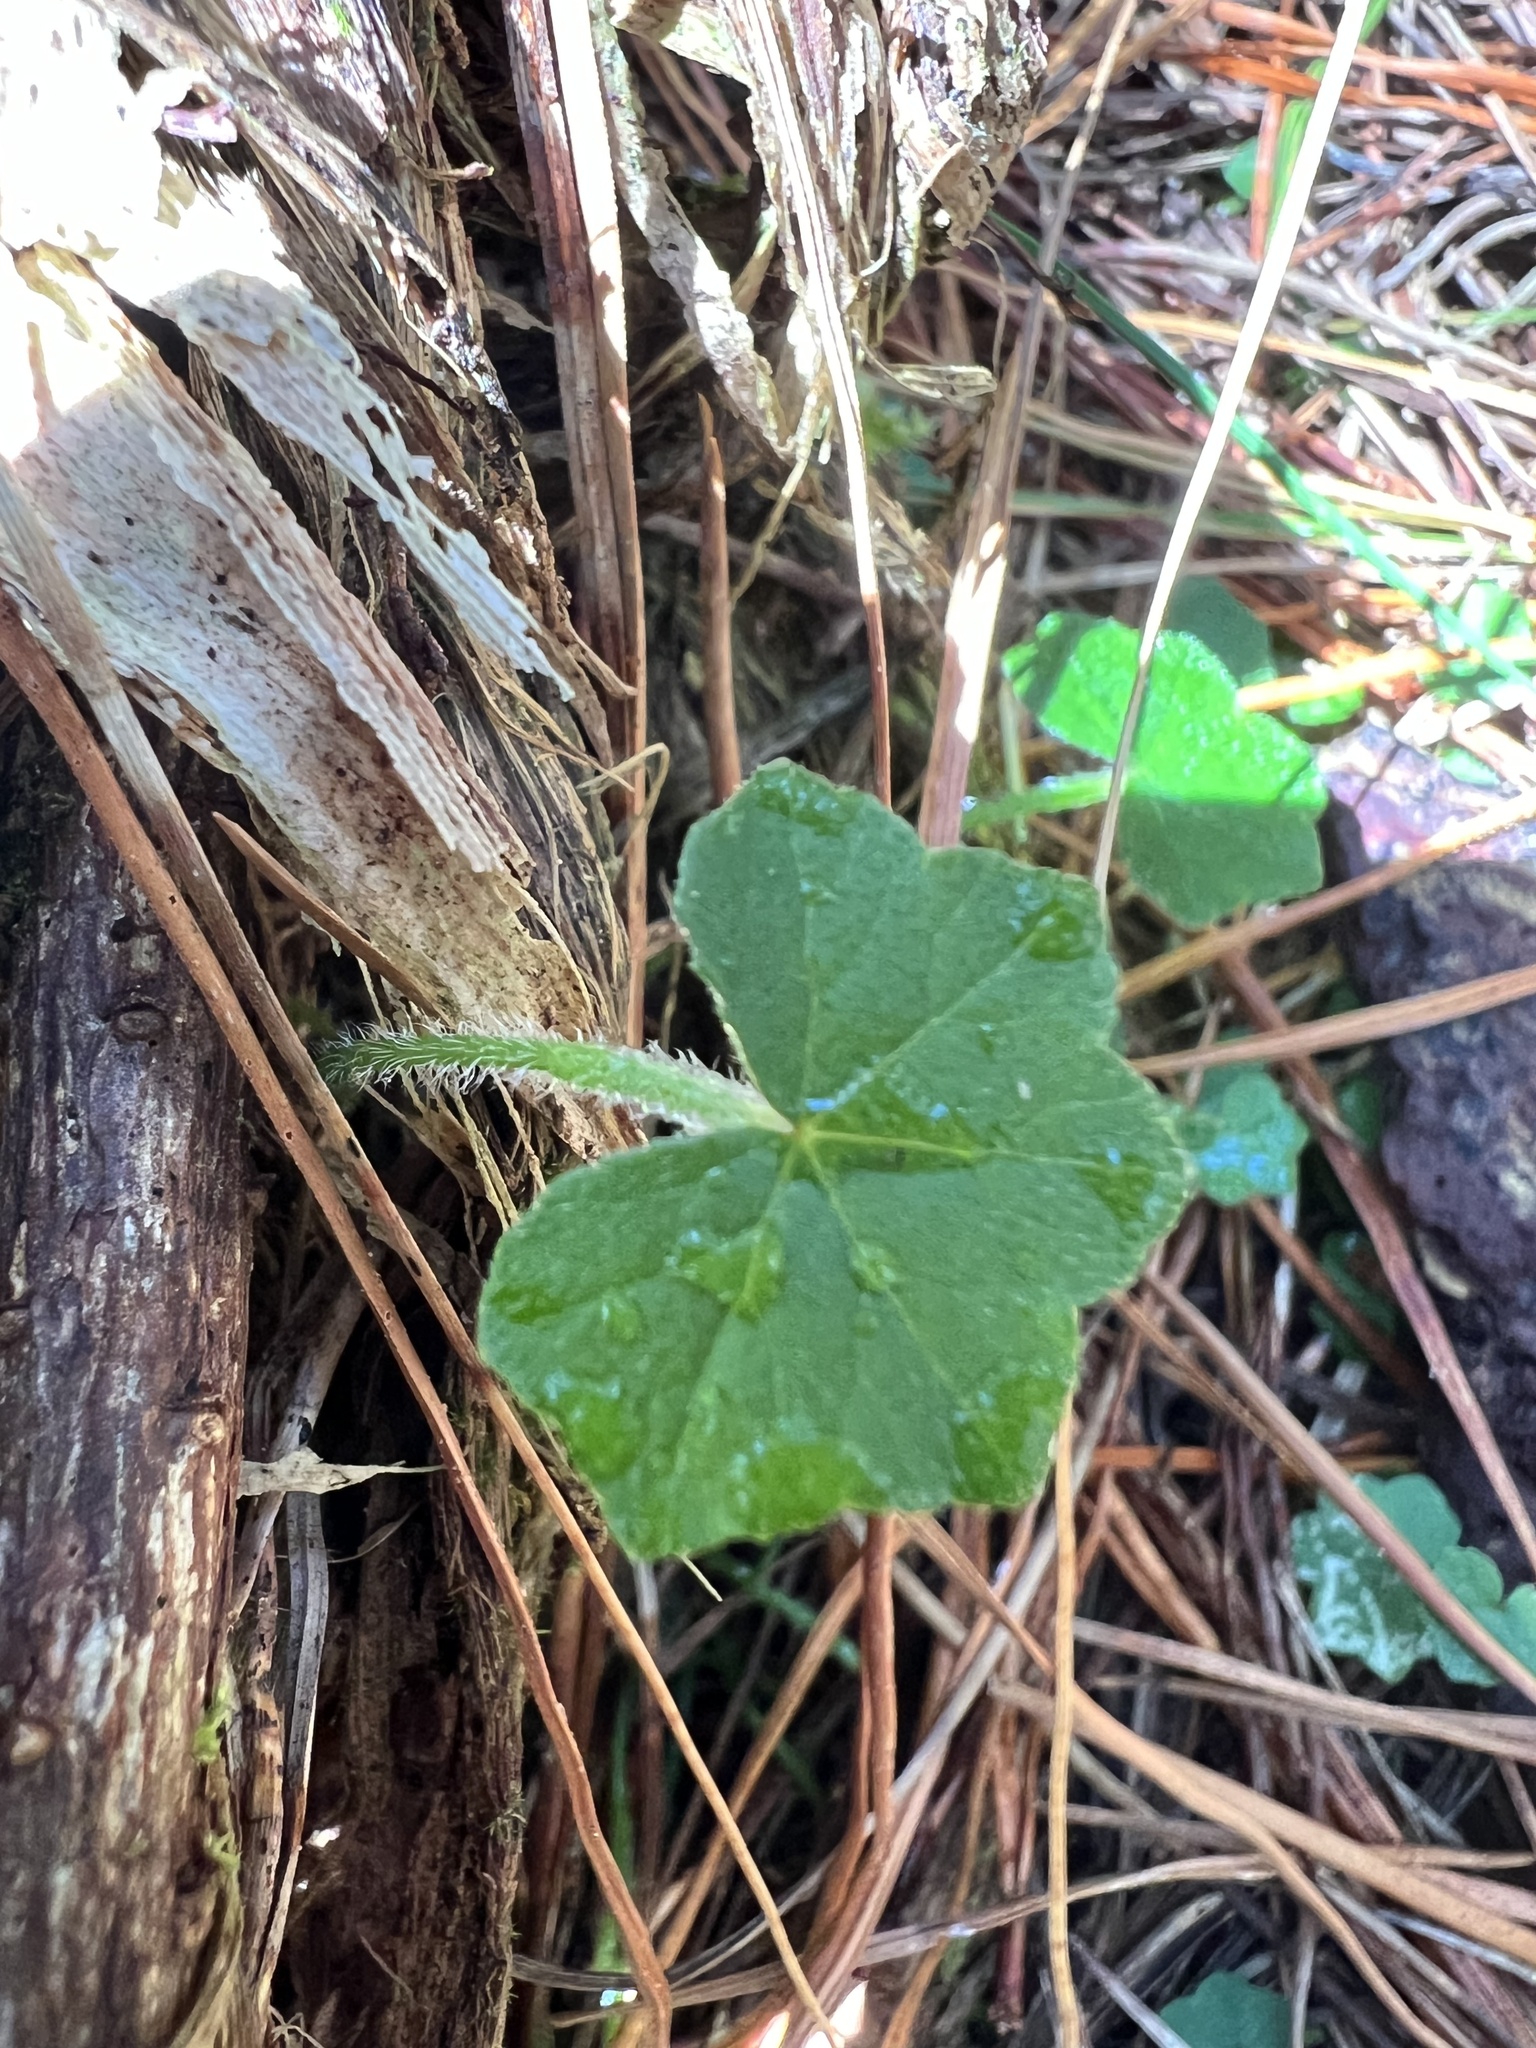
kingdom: Plantae
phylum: Tracheophyta
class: Magnoliopsida
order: Apiales
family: Araliaceae
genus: Hydrocotyle
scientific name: Hydrocotyle bowlesioides
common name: Largeleaf marshpennywort
